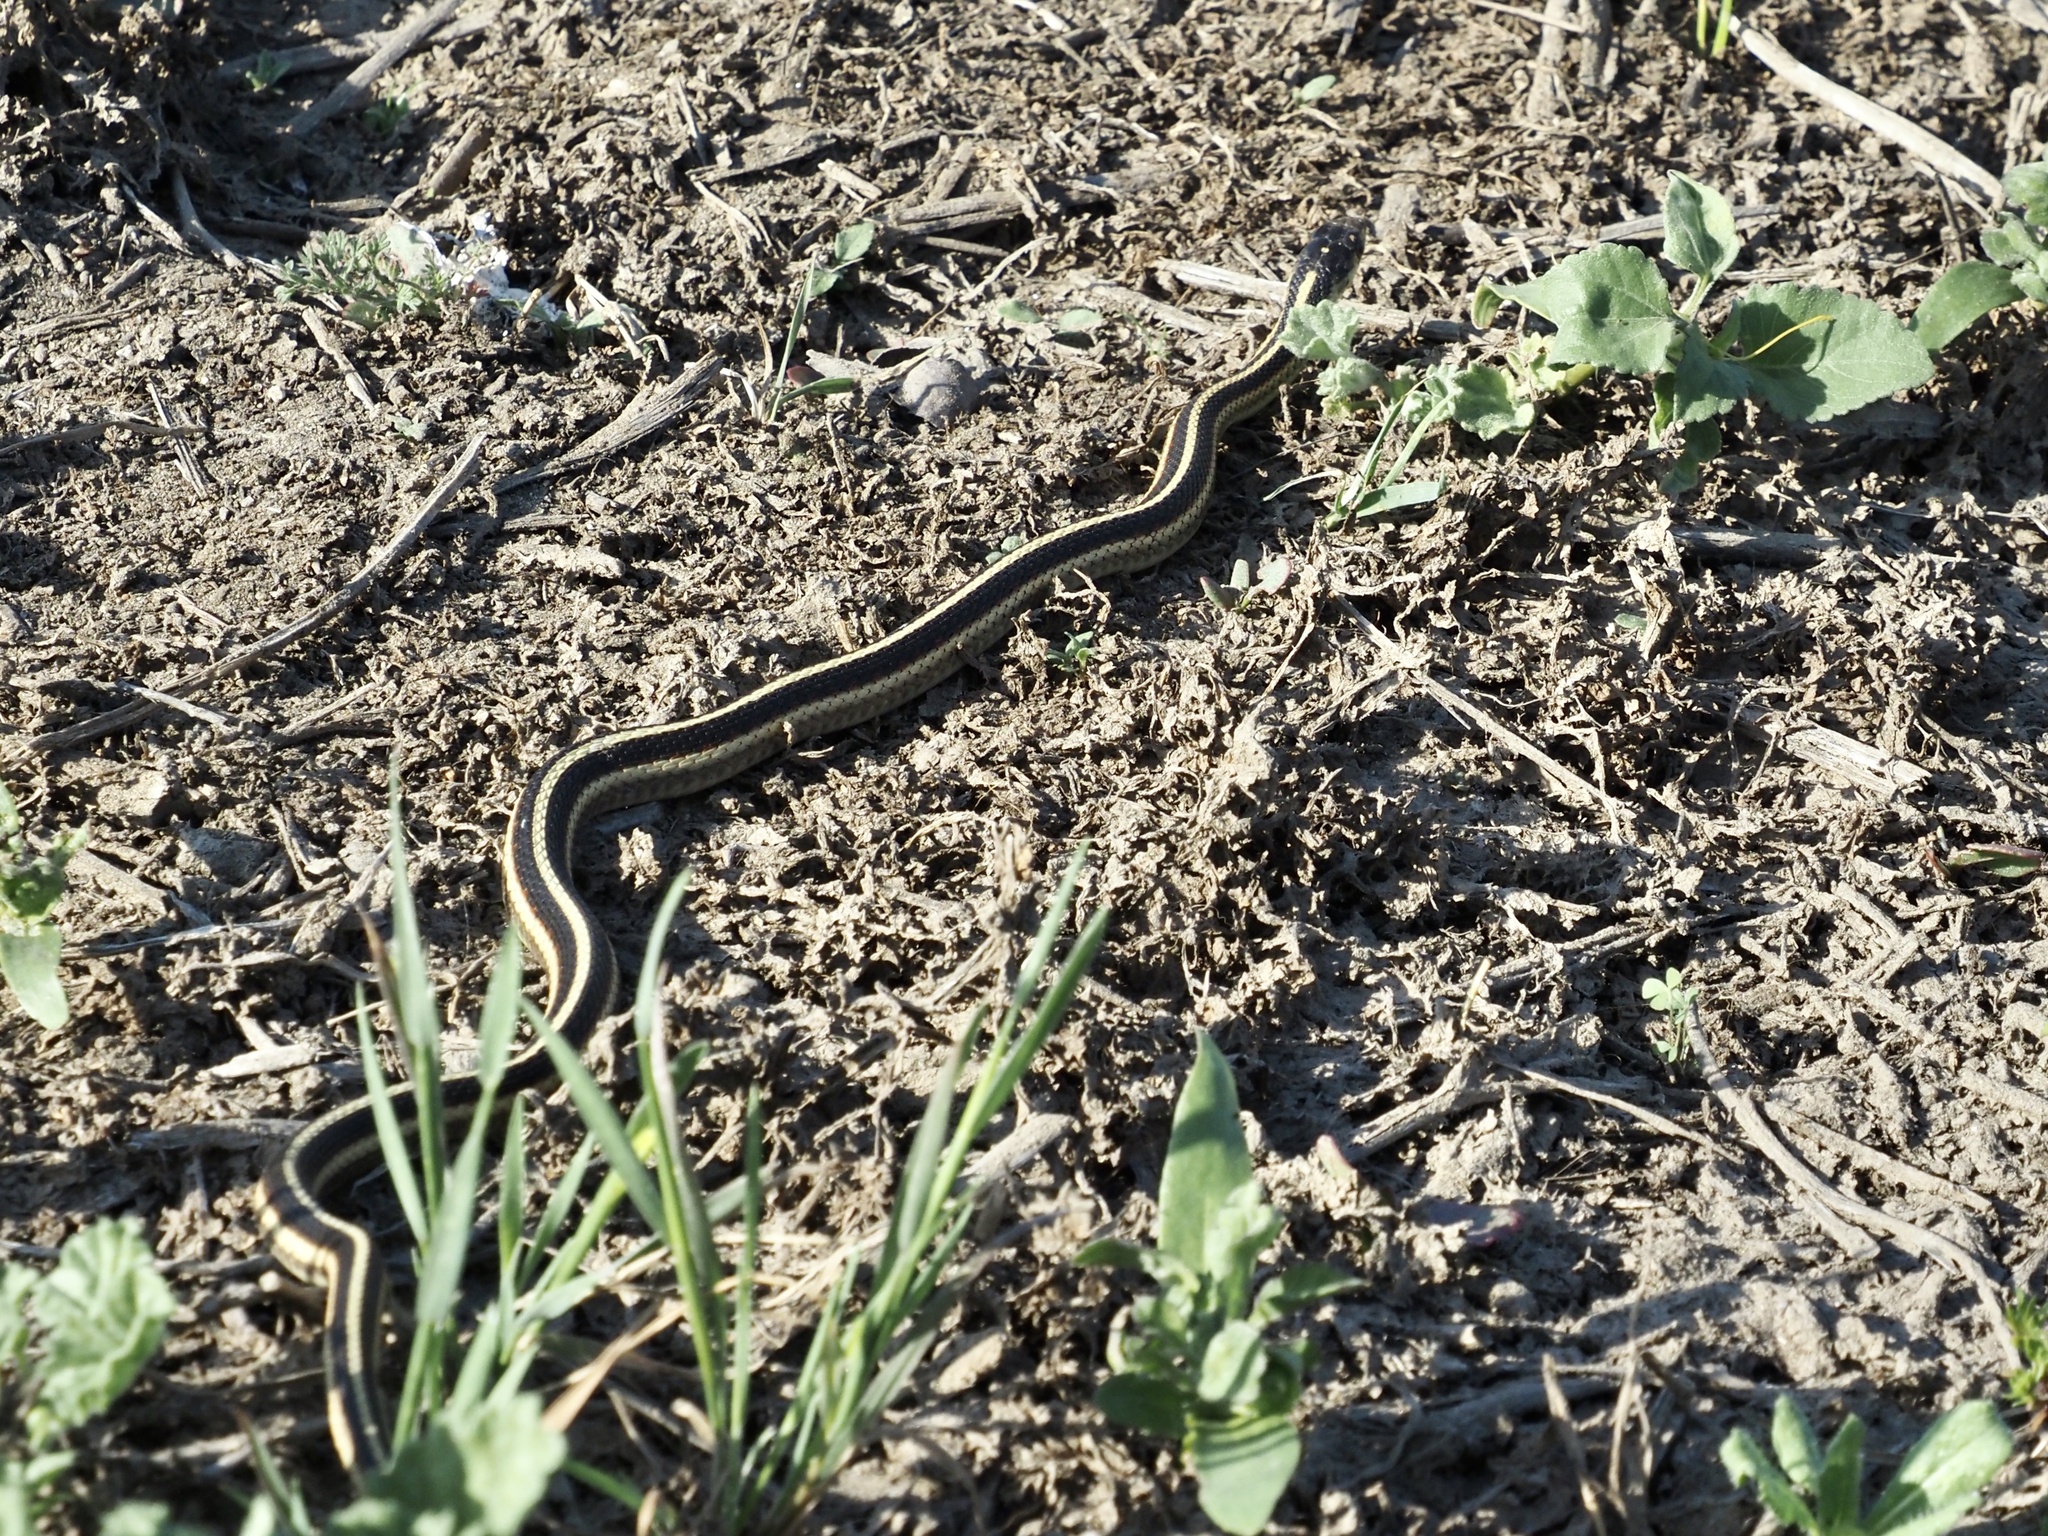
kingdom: Animalia
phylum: Chordata
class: Squamata
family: Colubridae
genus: Thamnophis
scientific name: Thamnophis sirtalis
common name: Common garter snake
